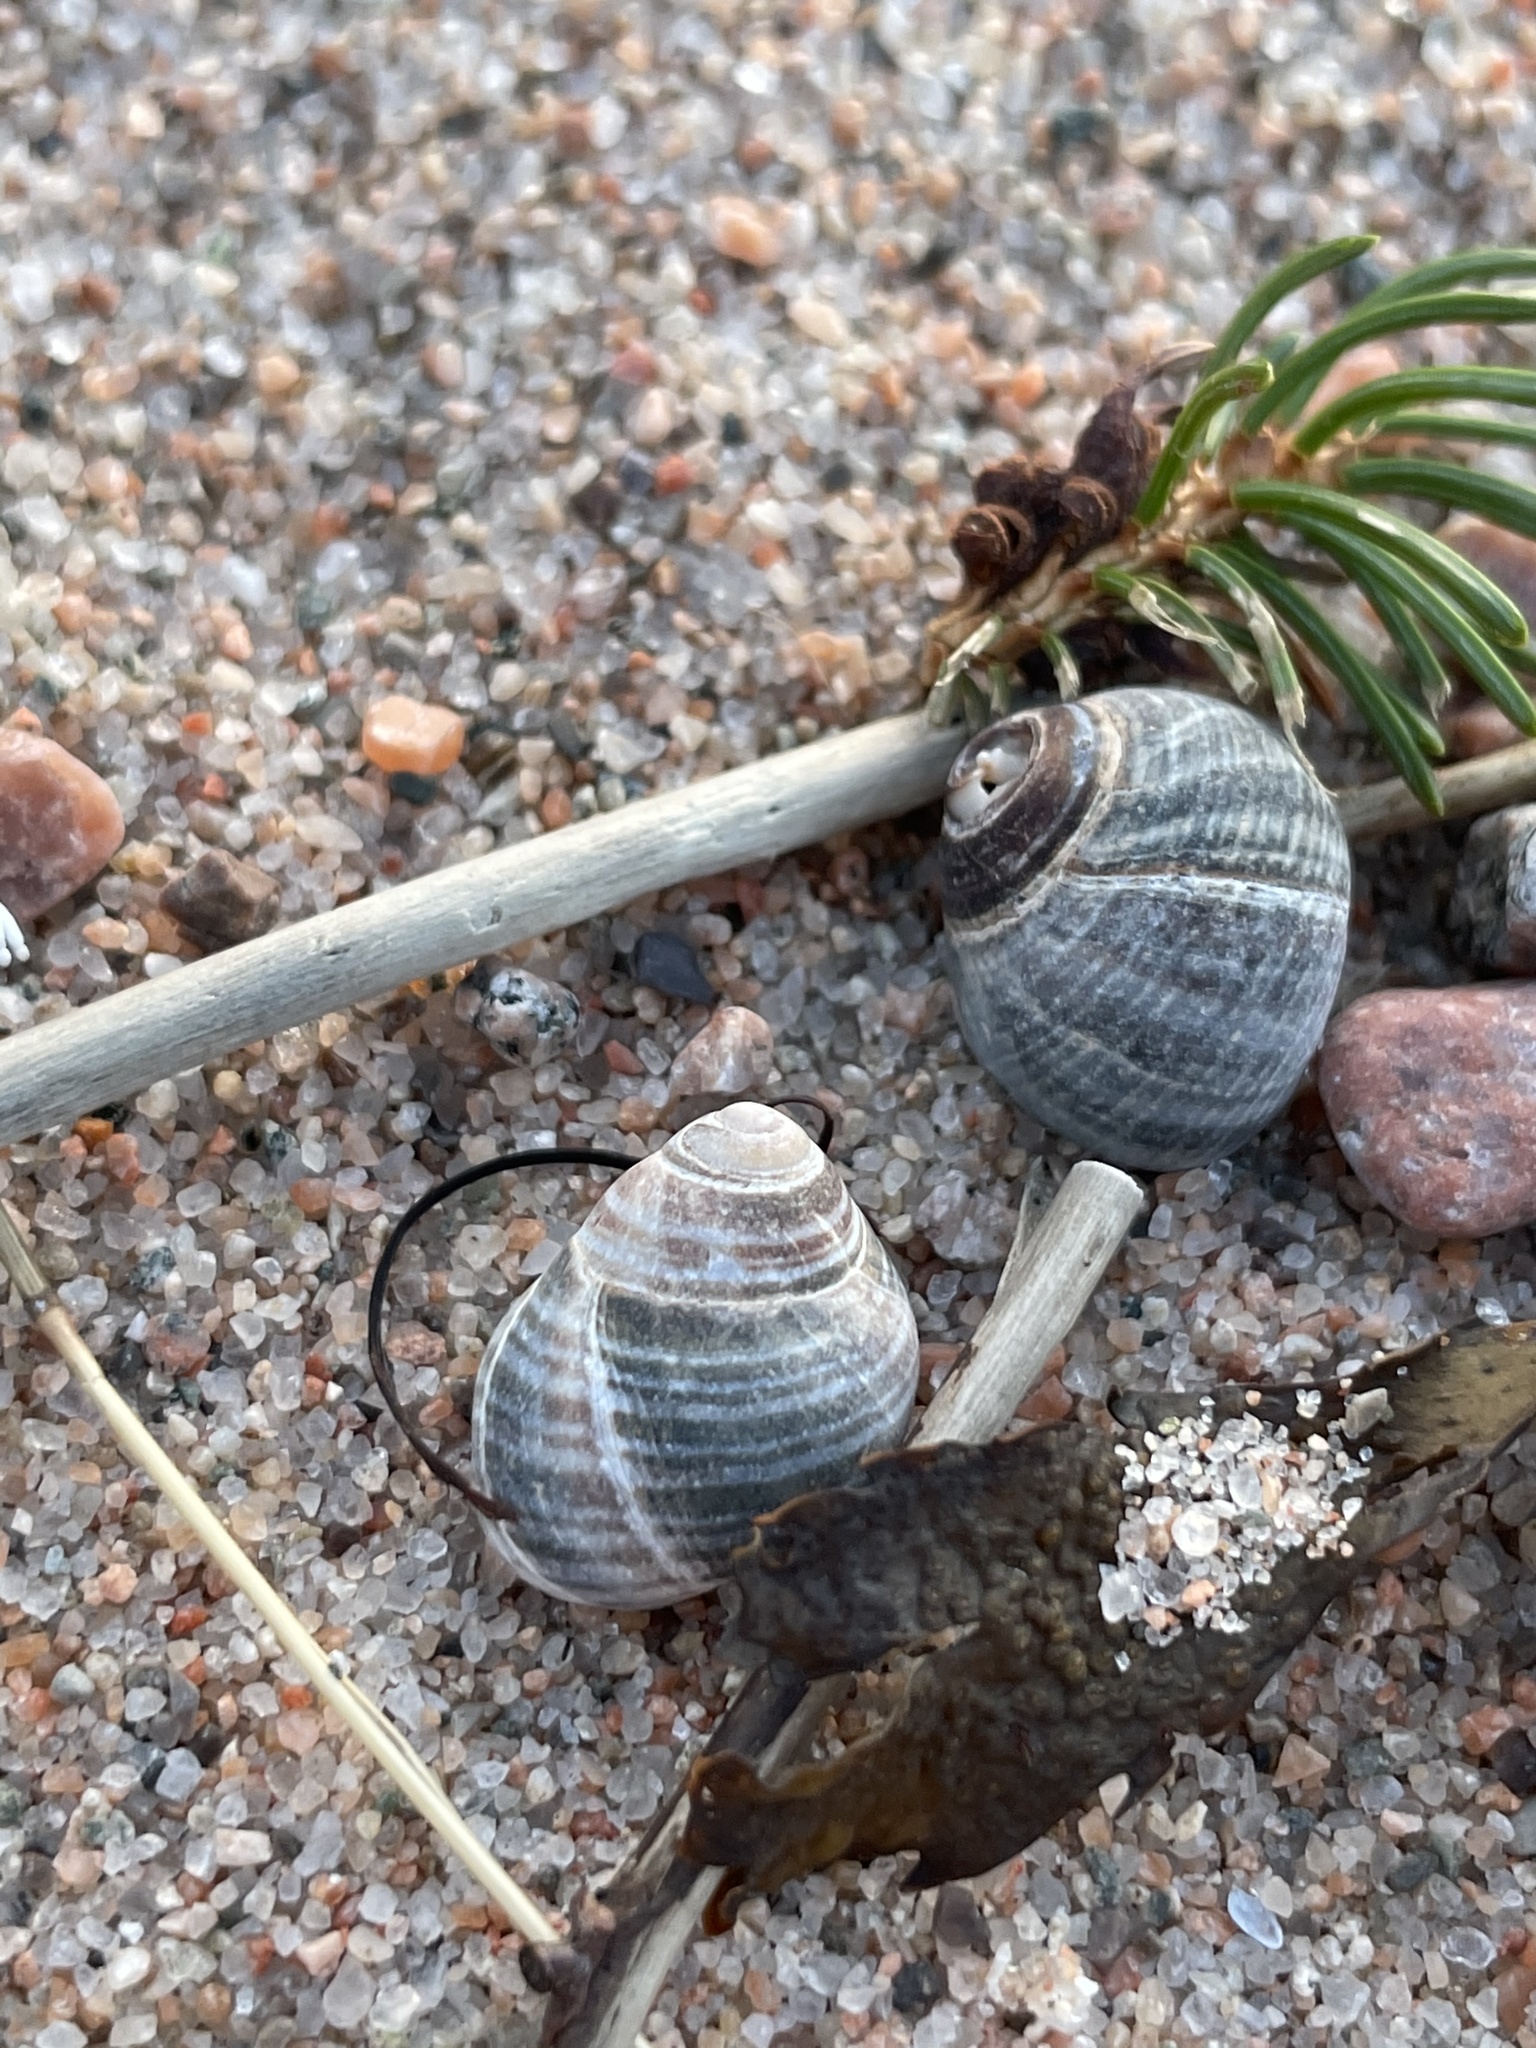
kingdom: Animalia
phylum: Mollusca
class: Gastropoda
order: Littorinimorpha
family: Littorinidae
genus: Littorina
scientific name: Littorina littorea
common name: Common periwinkle
